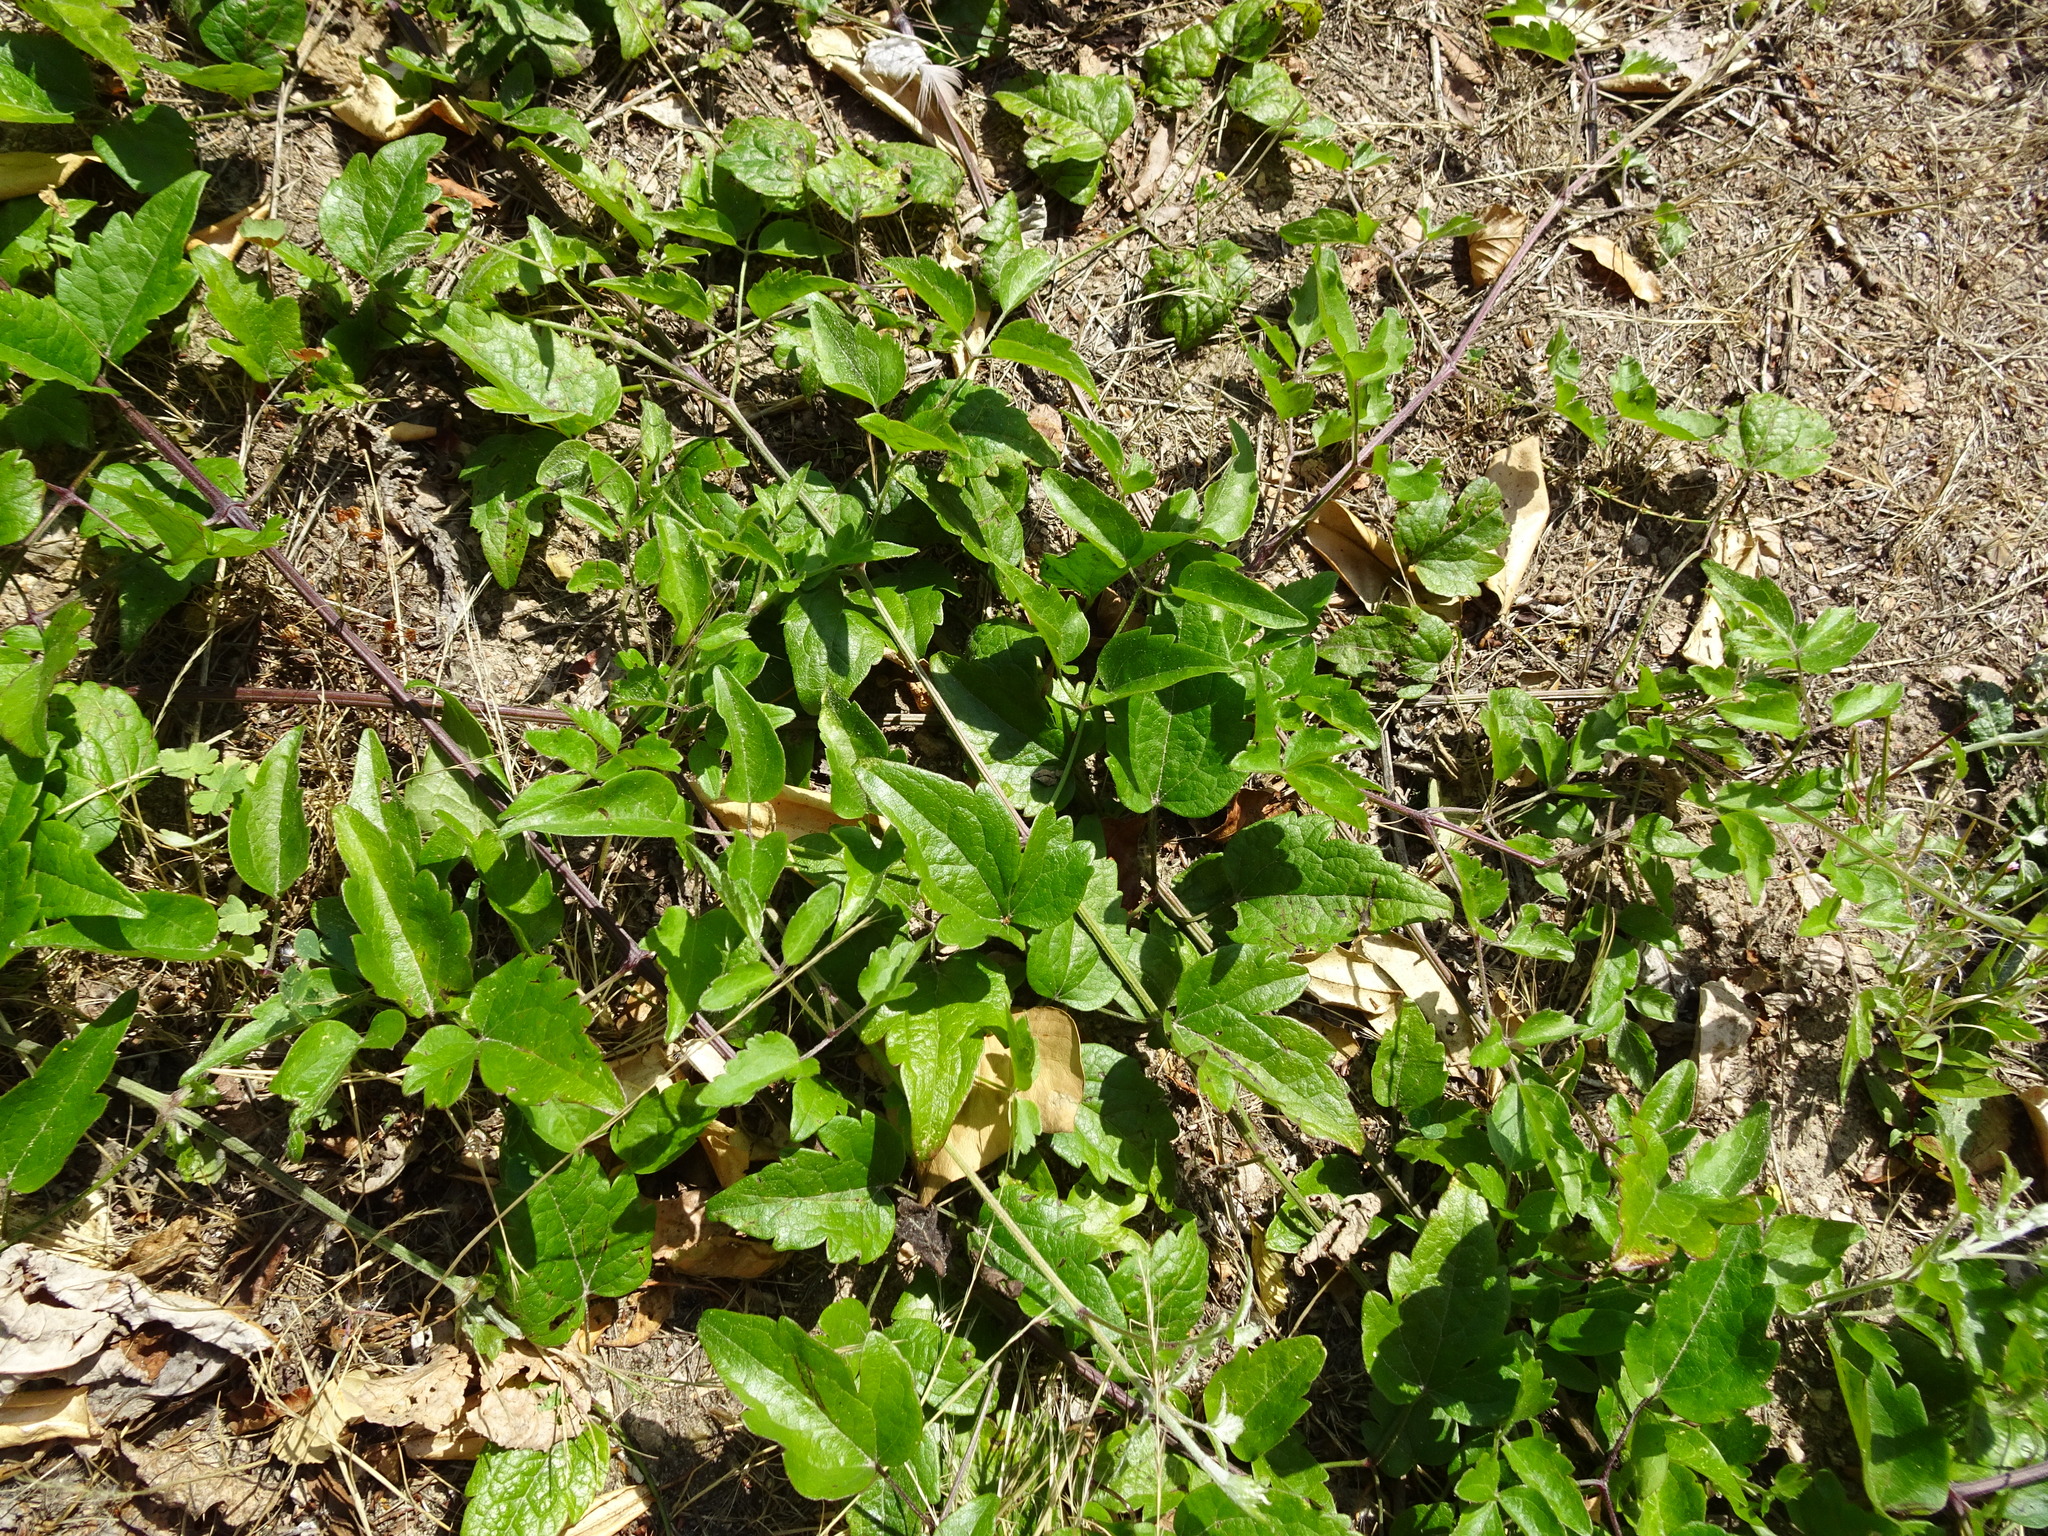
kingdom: Plantae
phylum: Tracheophyta
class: Magnoliopsida
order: Ranunculales
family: Ranunculaceae
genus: Clematis
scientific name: Clematis vitalba
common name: Evergreen clematis
